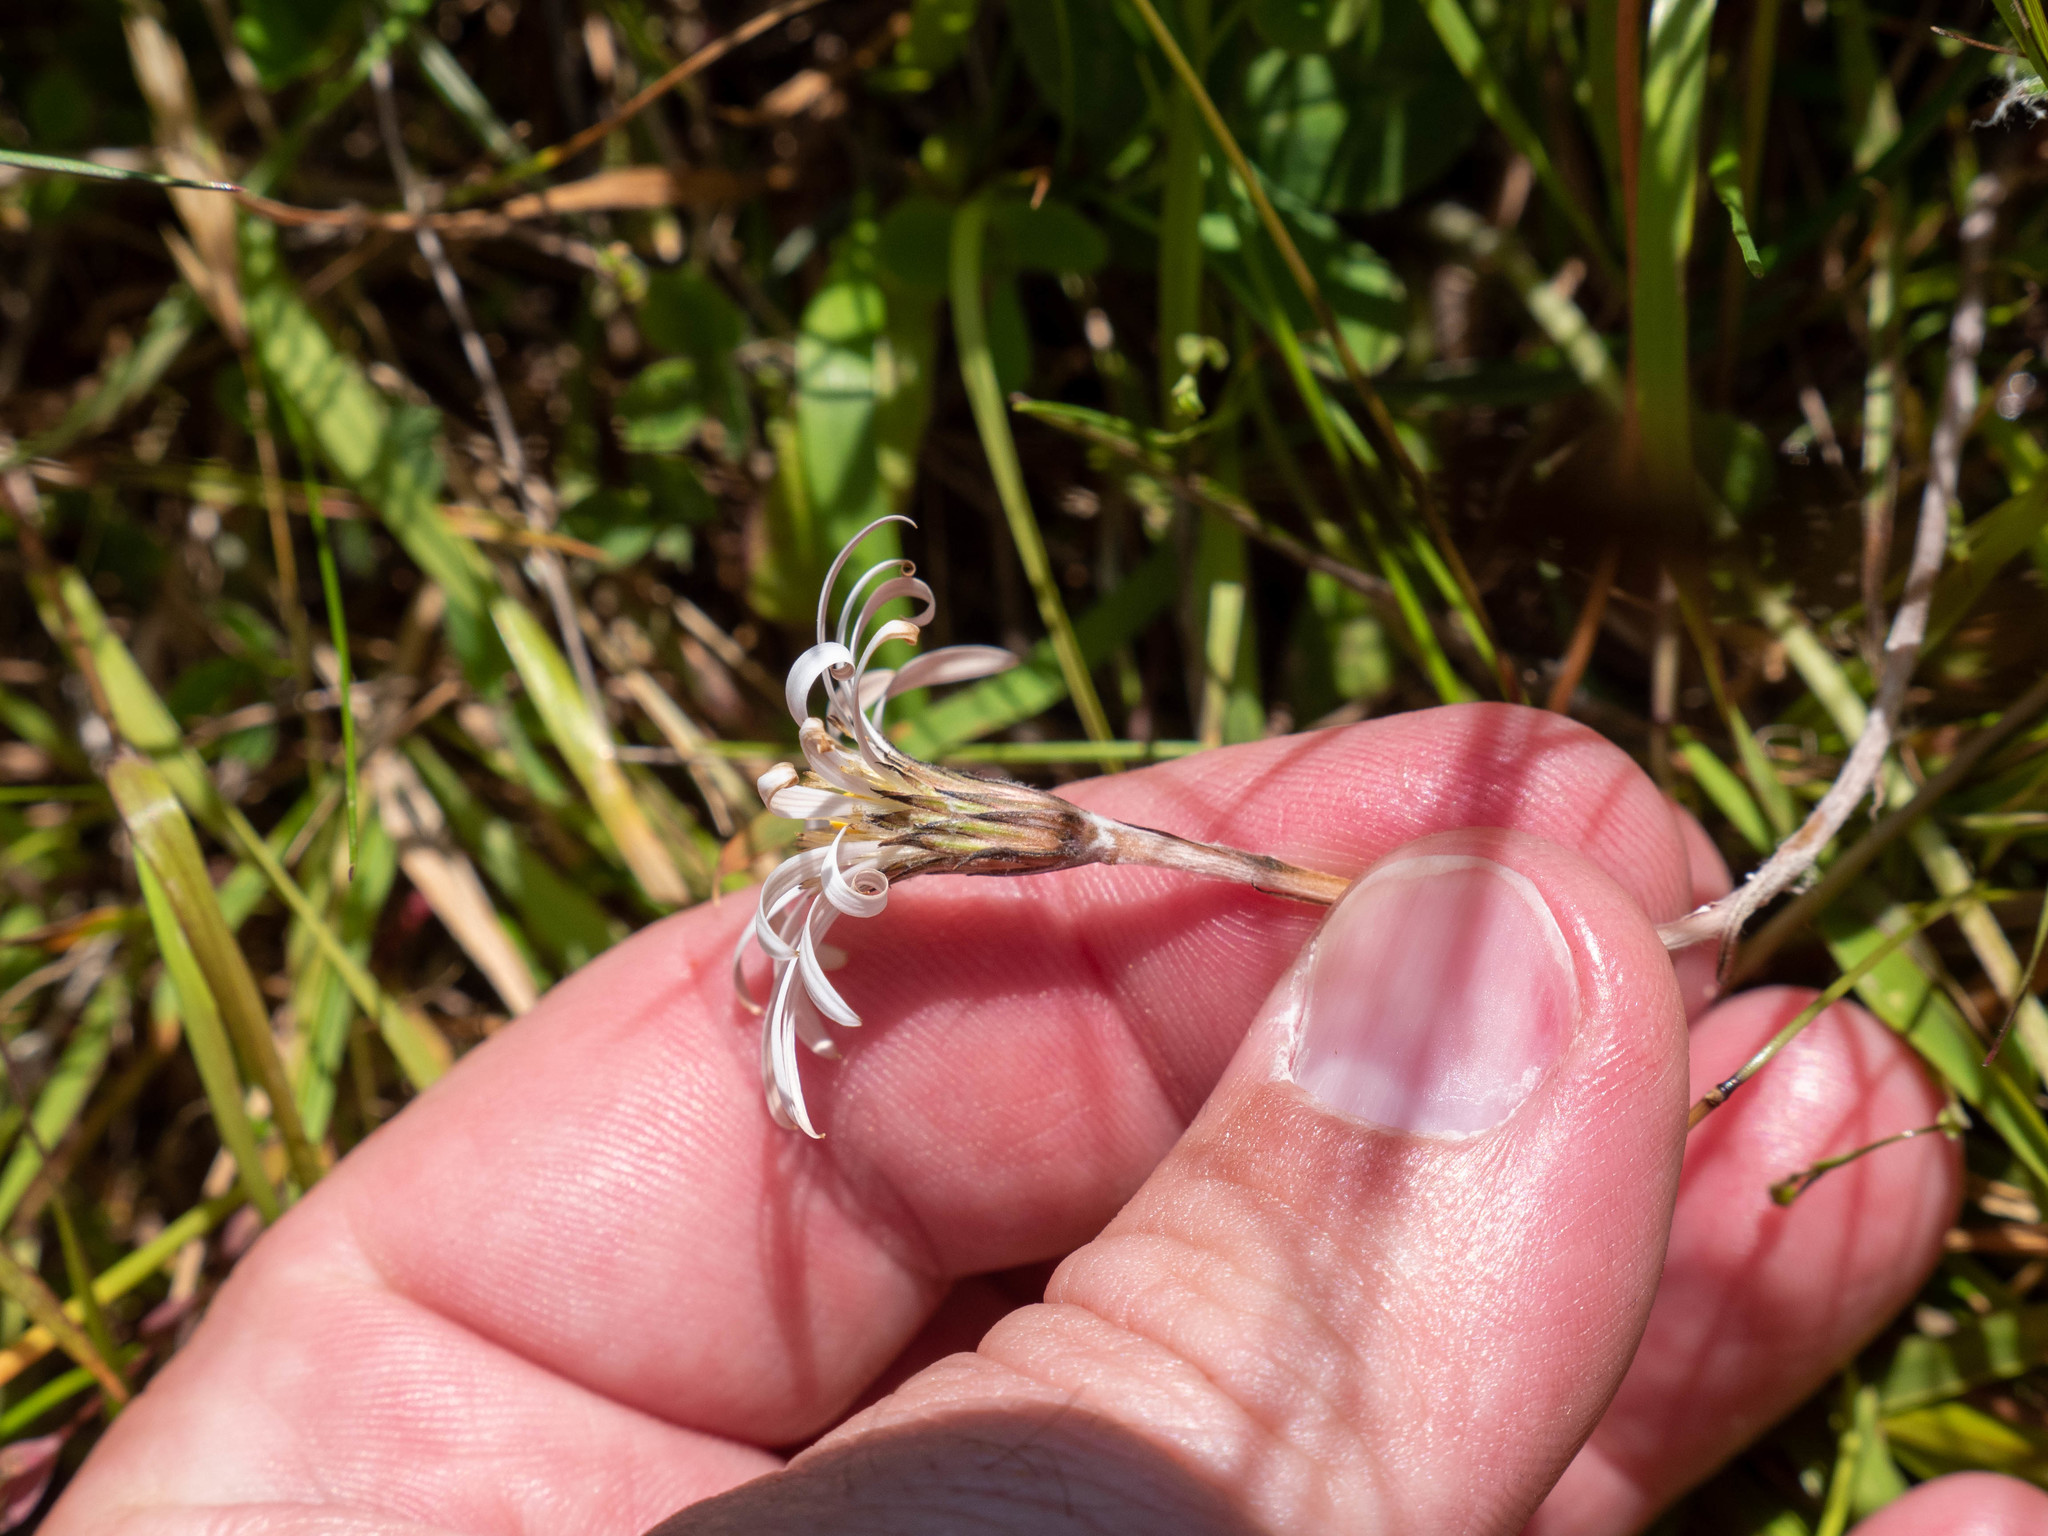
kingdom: Plantae
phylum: Tracheophyta
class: Magnoliopsida
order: Asterales
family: Asteraceae
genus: Celmisia
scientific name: Celmisia gracilenta
